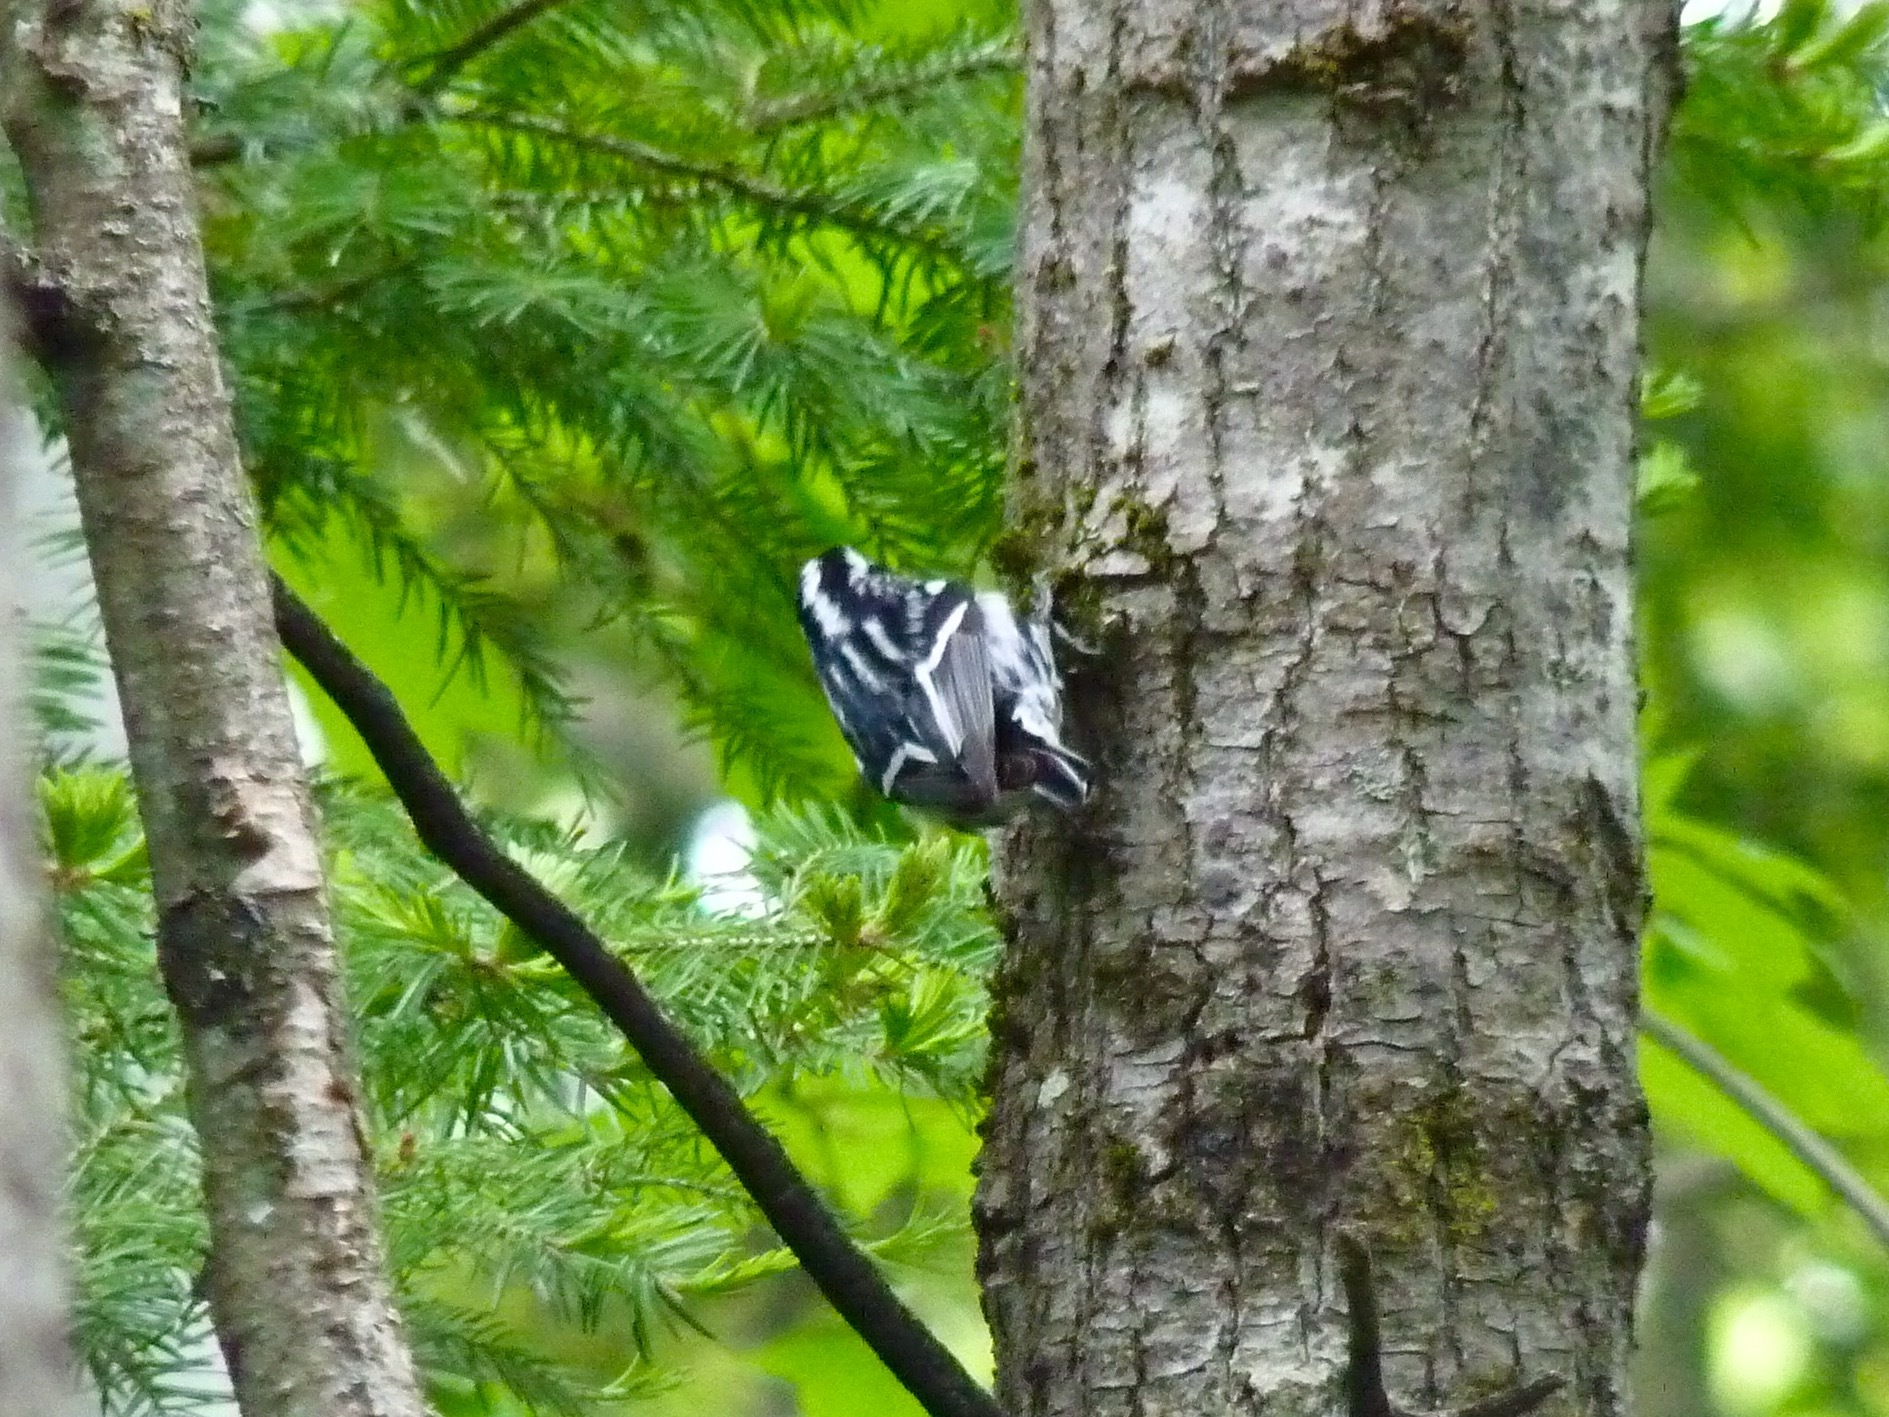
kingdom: Animalia
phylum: Chordata
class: Aves
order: Passeriformes
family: Parulidae
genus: Mniotilta
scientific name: Mniotilta varia
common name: Black-and-white warbler
